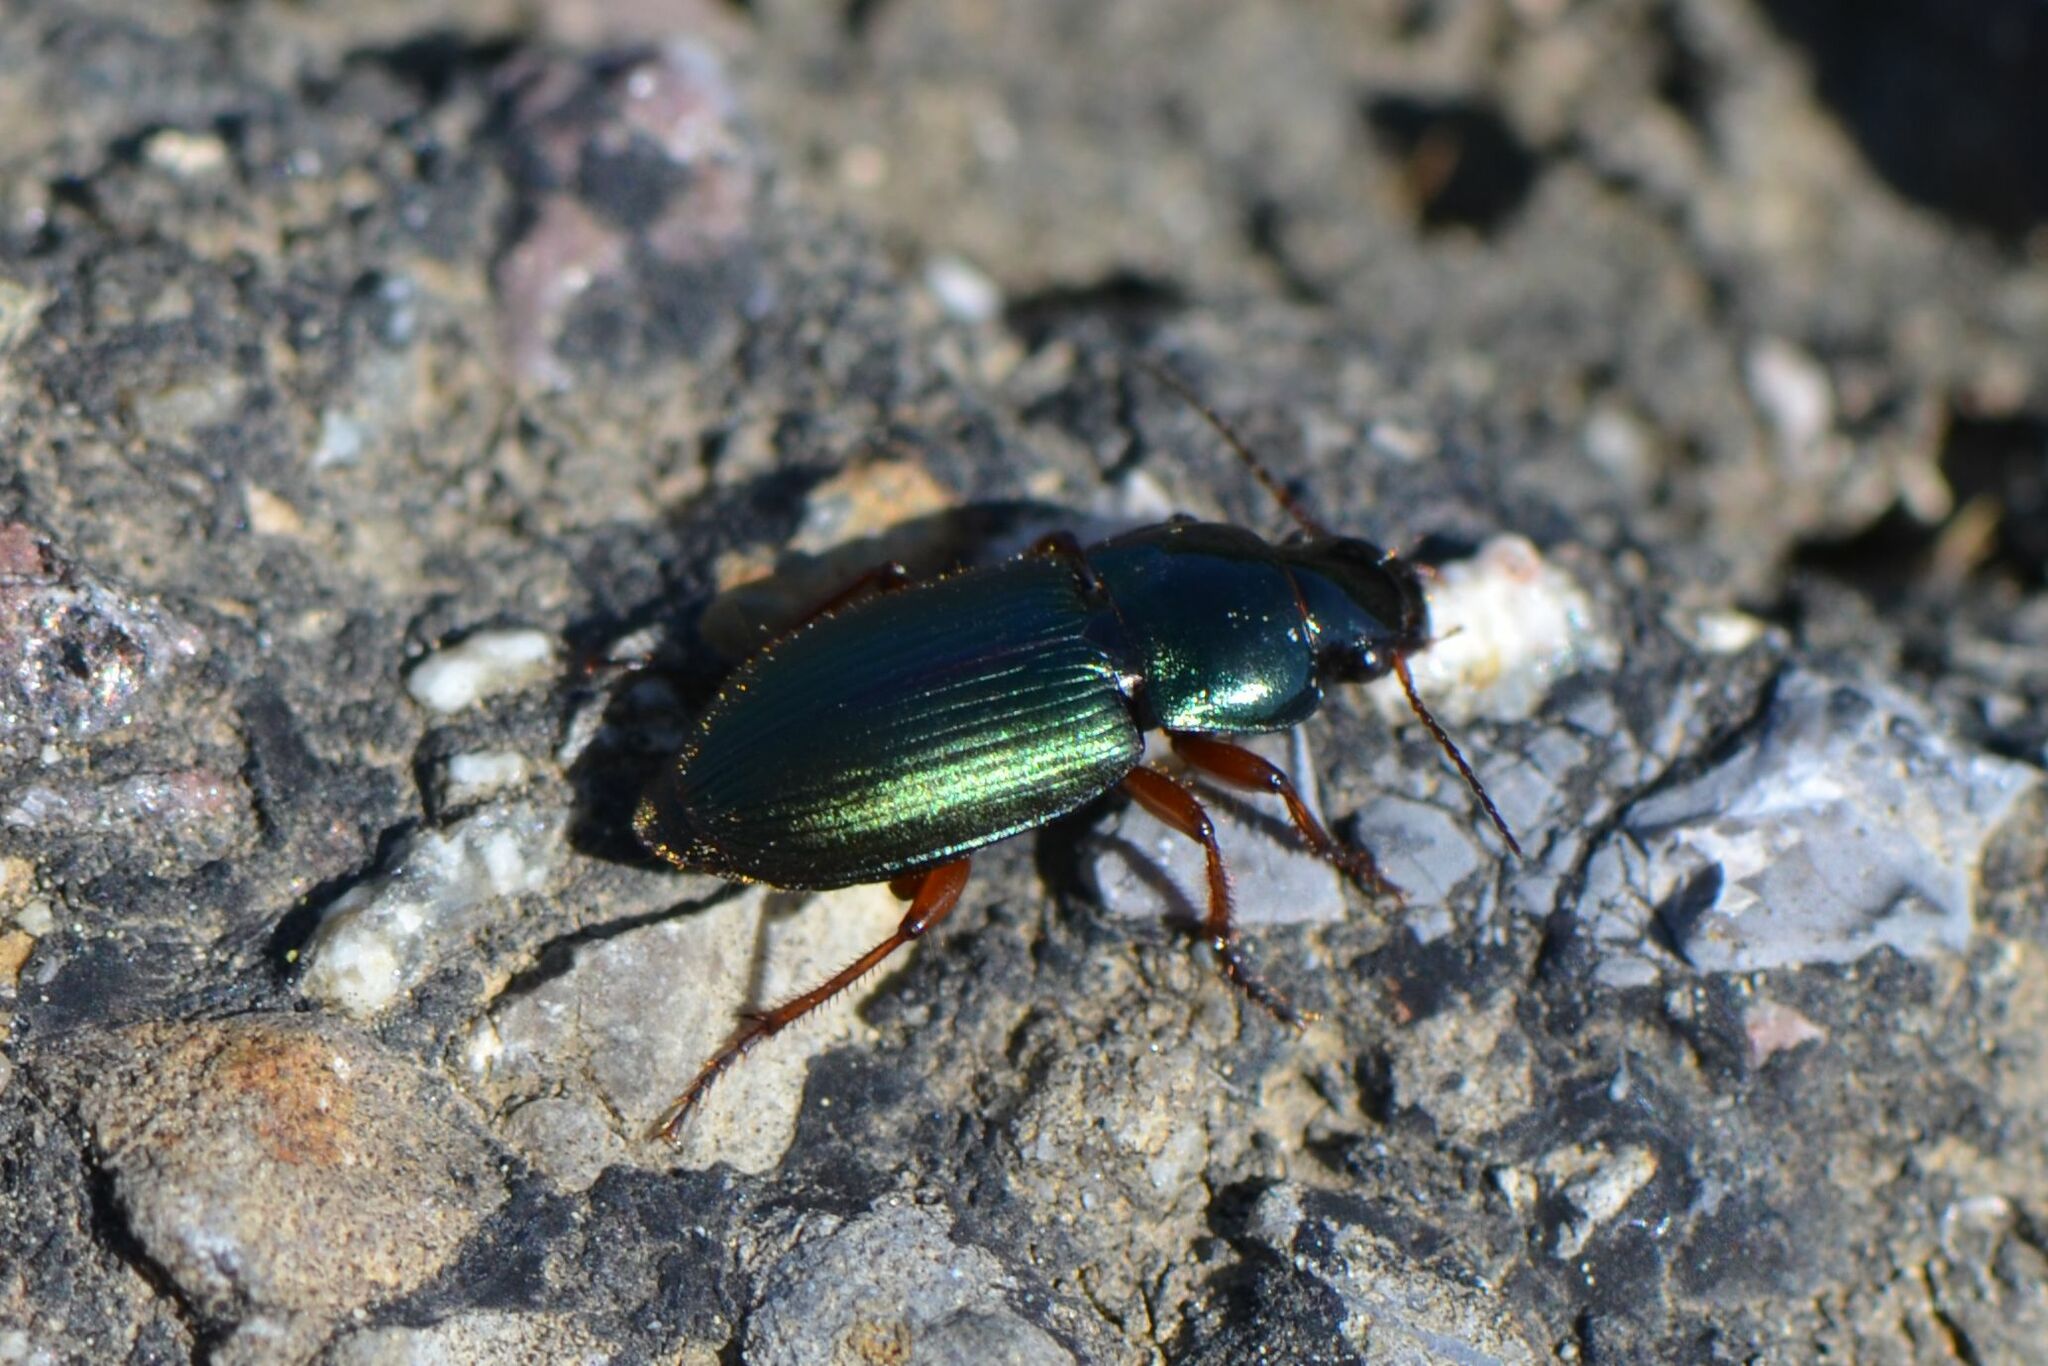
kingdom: Animalia
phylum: Arthropoda
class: Insecta
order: Coleoptera
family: Carabidae
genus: Harpalus
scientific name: Harpalus affinis
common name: Polychrome harp ground beetle
